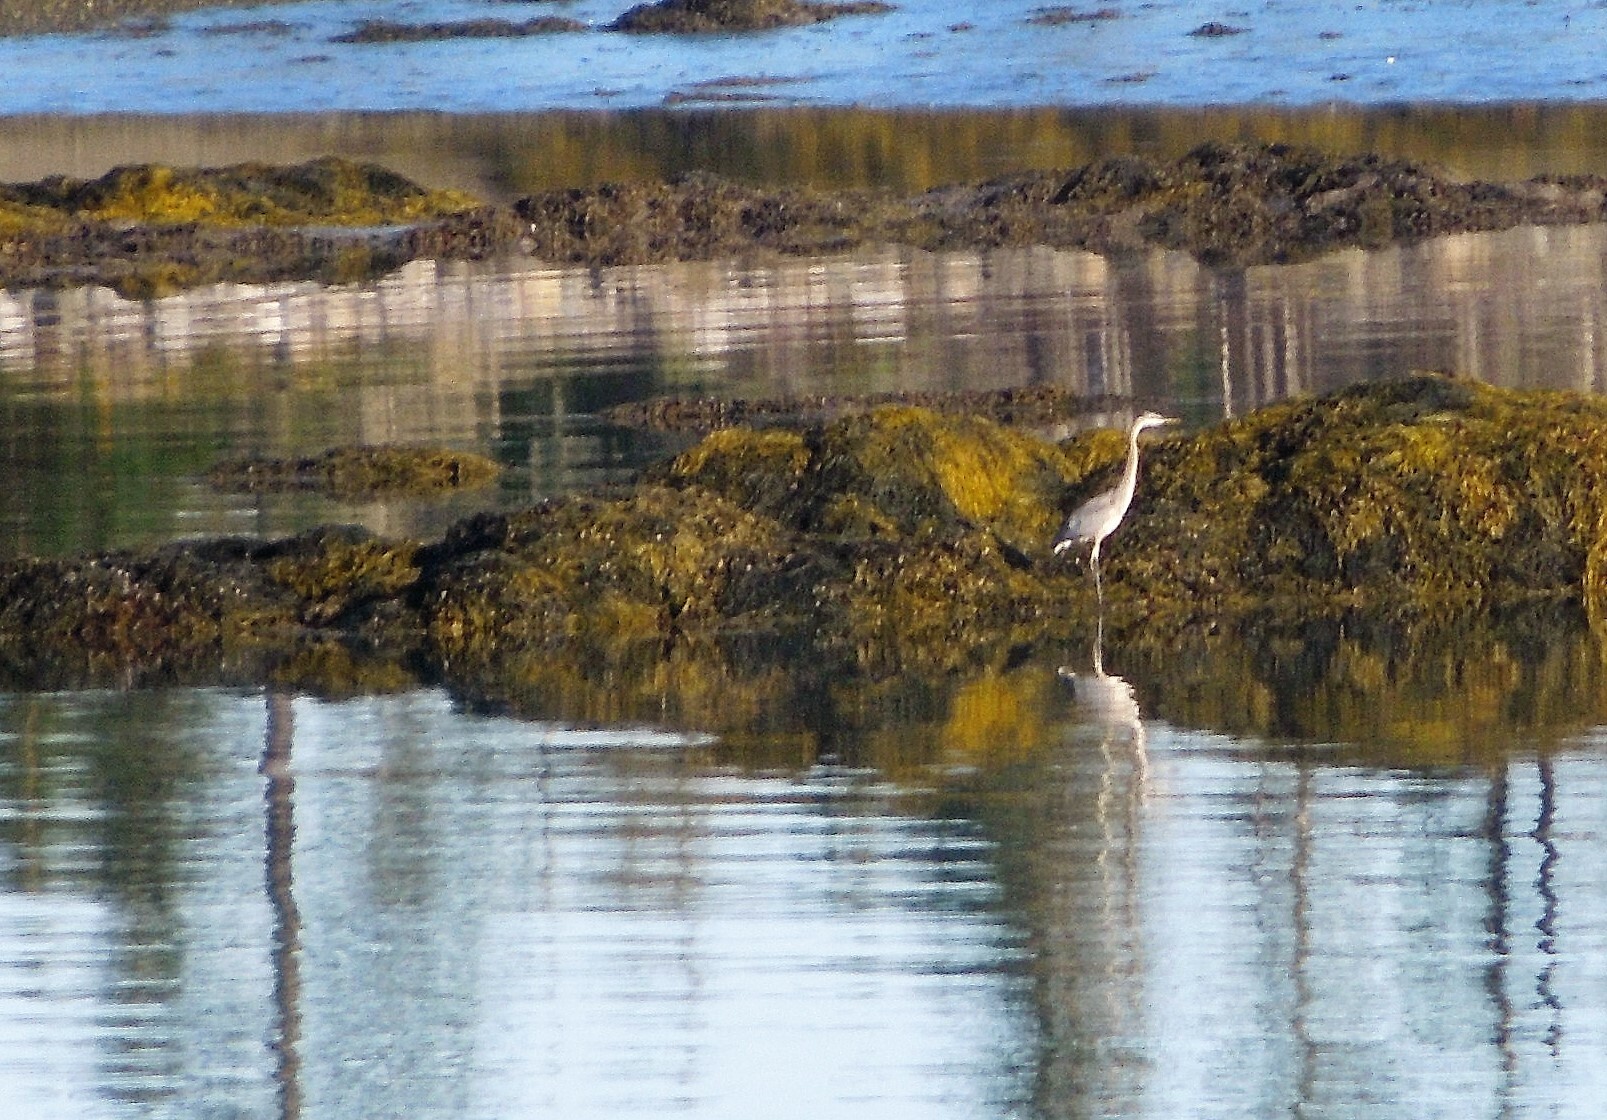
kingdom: Animalia
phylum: Chordata
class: Aves
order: Pelecaniformes
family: Ardeidae
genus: Ardea
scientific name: Ardea herodias
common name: Great blue heron
